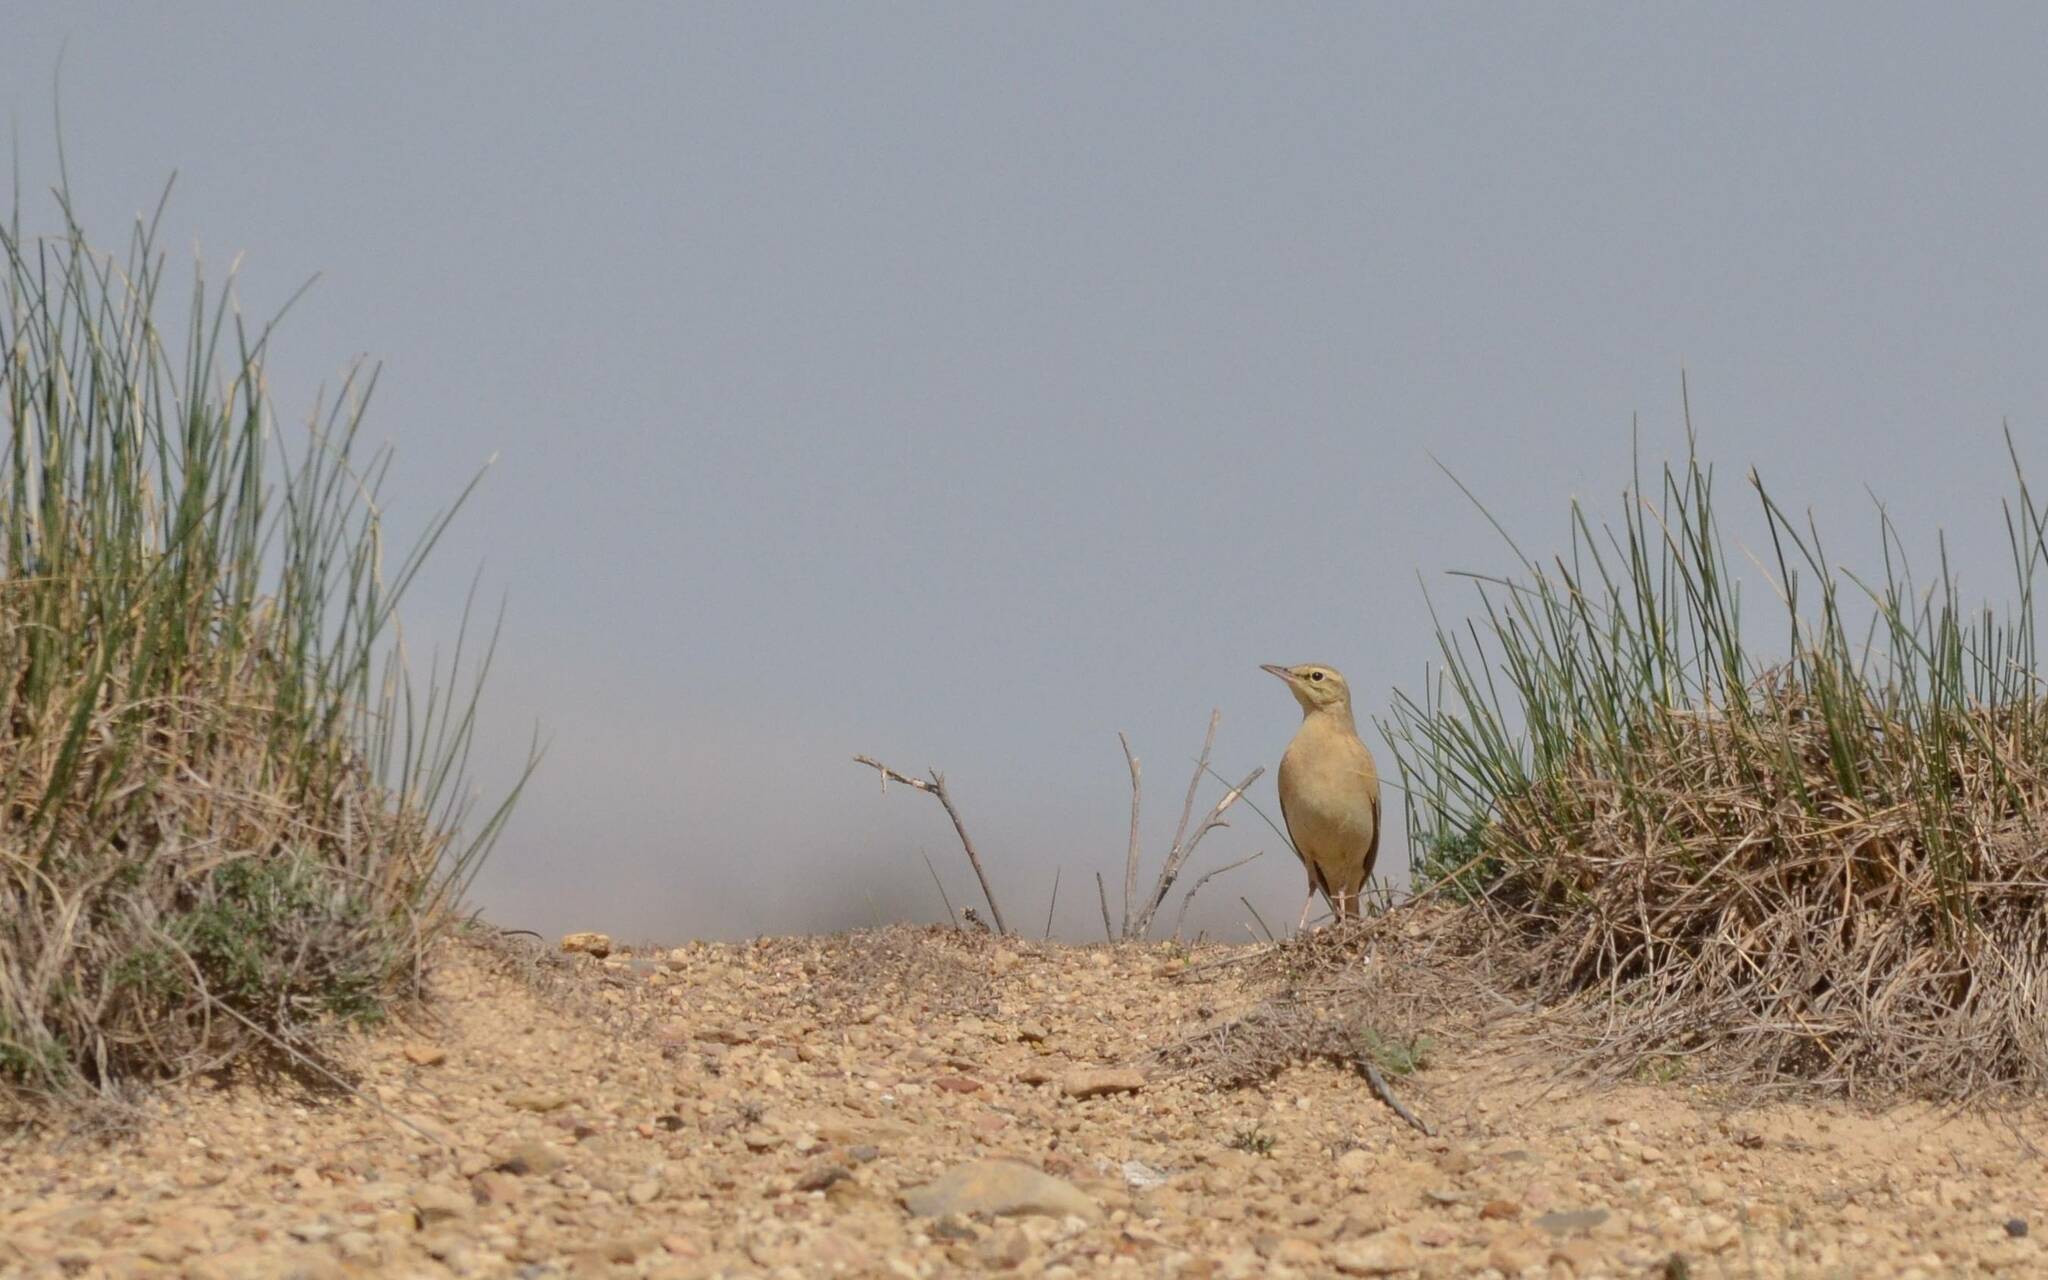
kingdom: Animalia
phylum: Chordata
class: Aves
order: Passeriformes
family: Motacillidae
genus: Anthus
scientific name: Anthus campestris
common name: Tawny pipit
